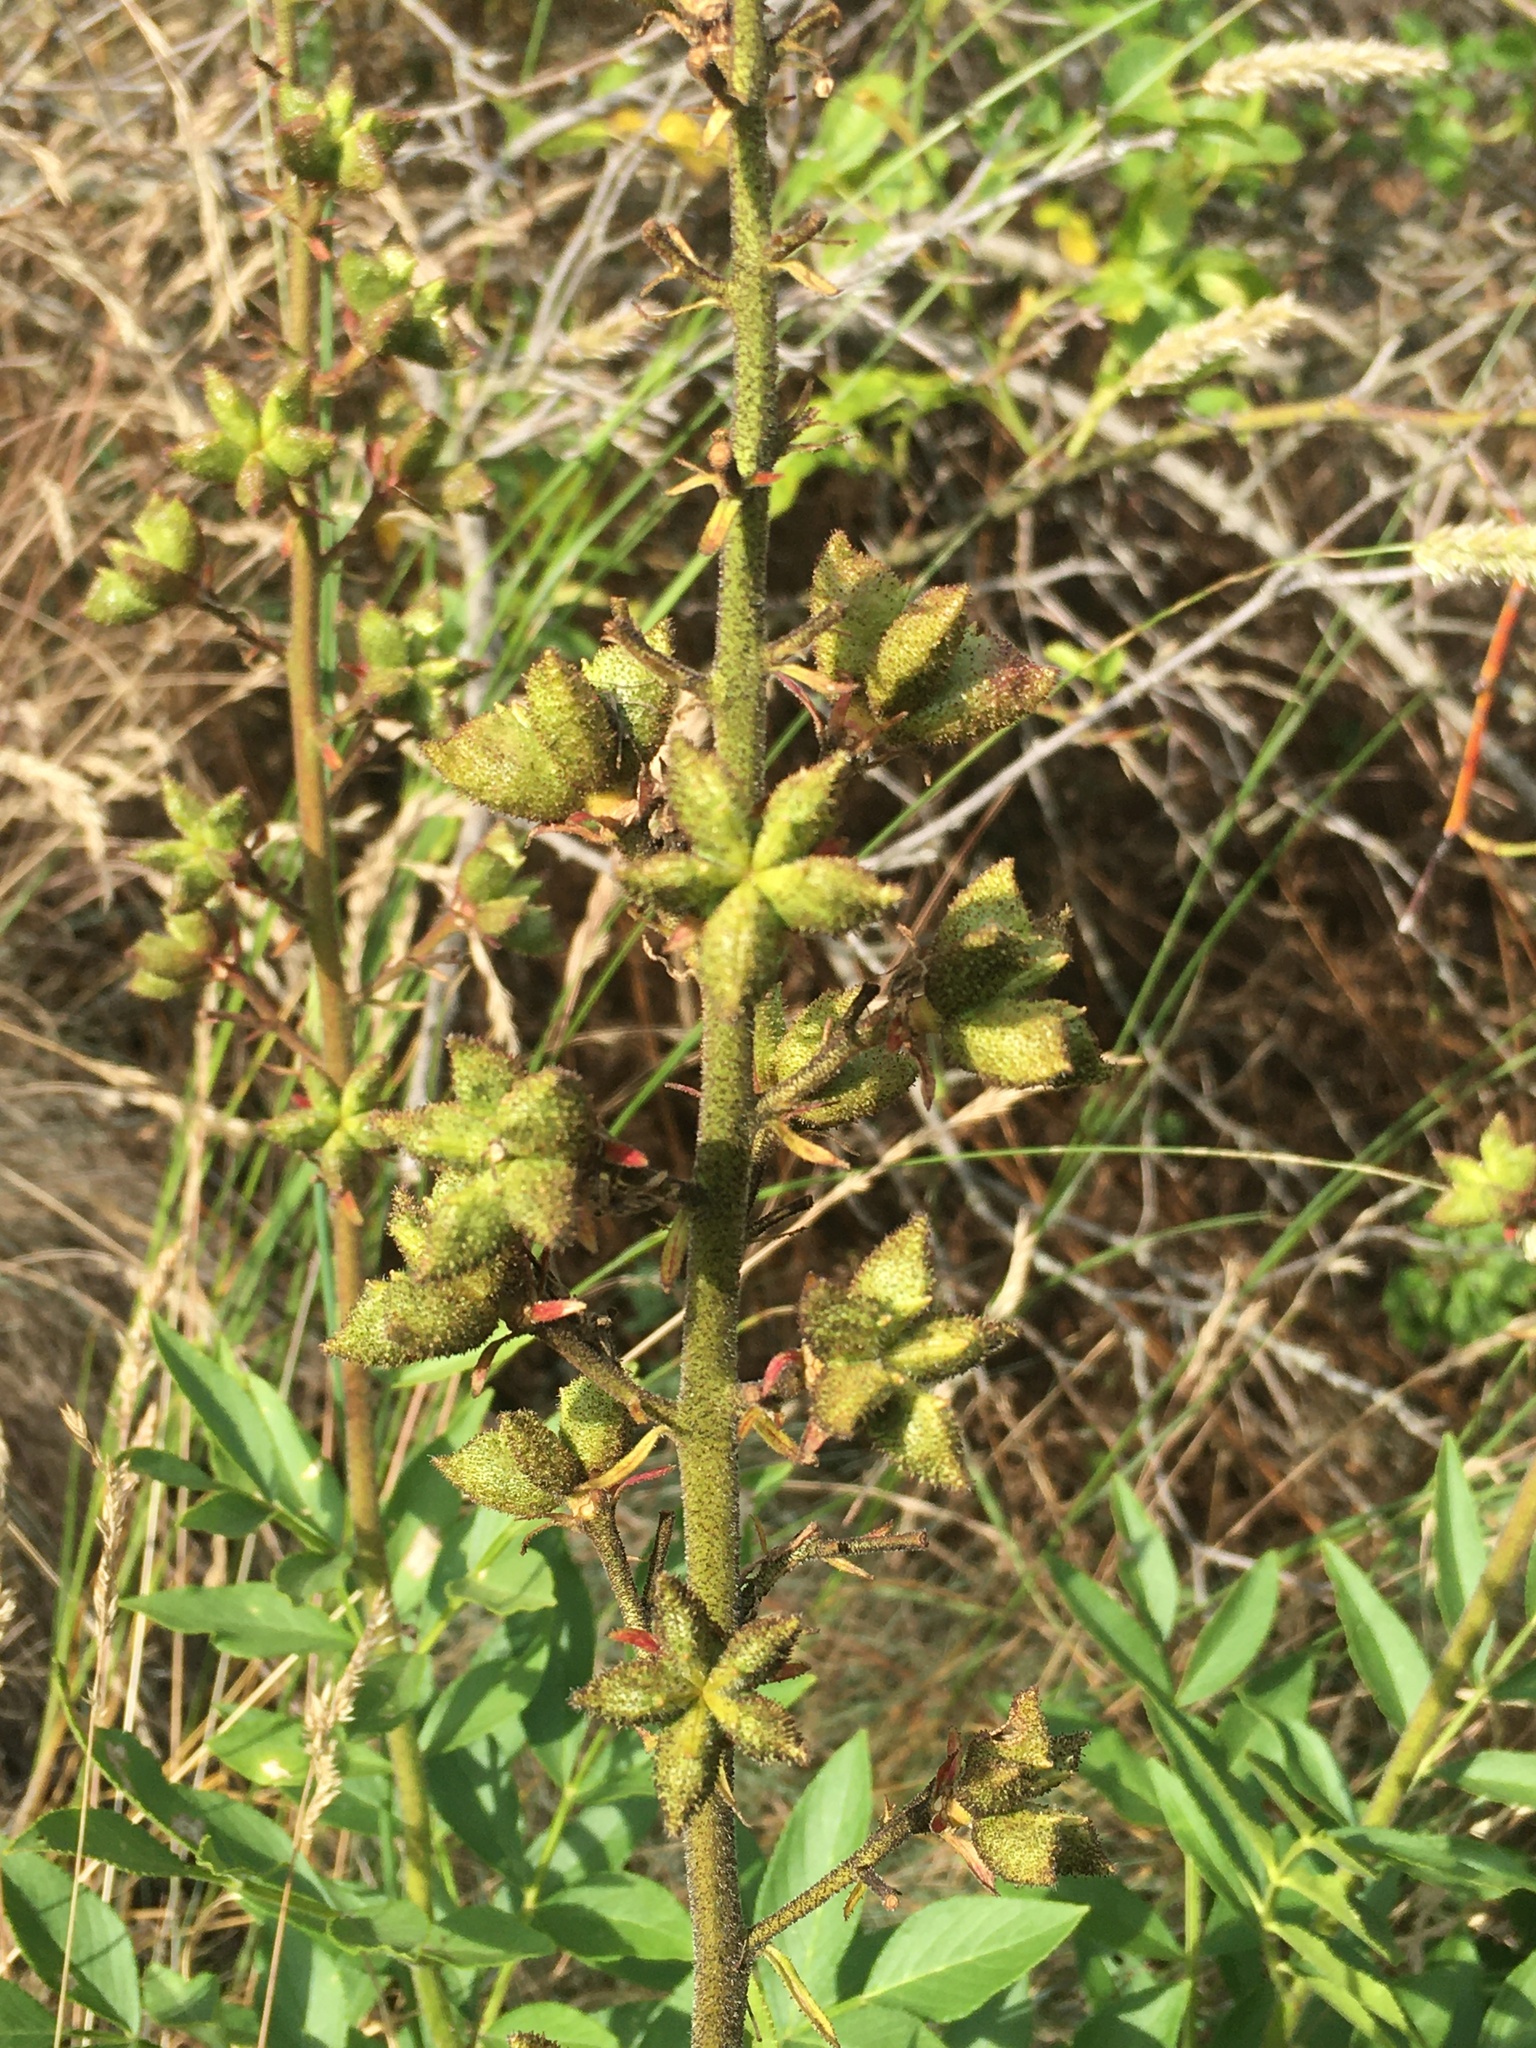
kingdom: Plantae
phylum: Tracheophyta
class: Magnoliopsida
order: Sapindales
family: Rutaceae
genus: Dictamnus
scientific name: Dictamnus albus
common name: Gasplant
